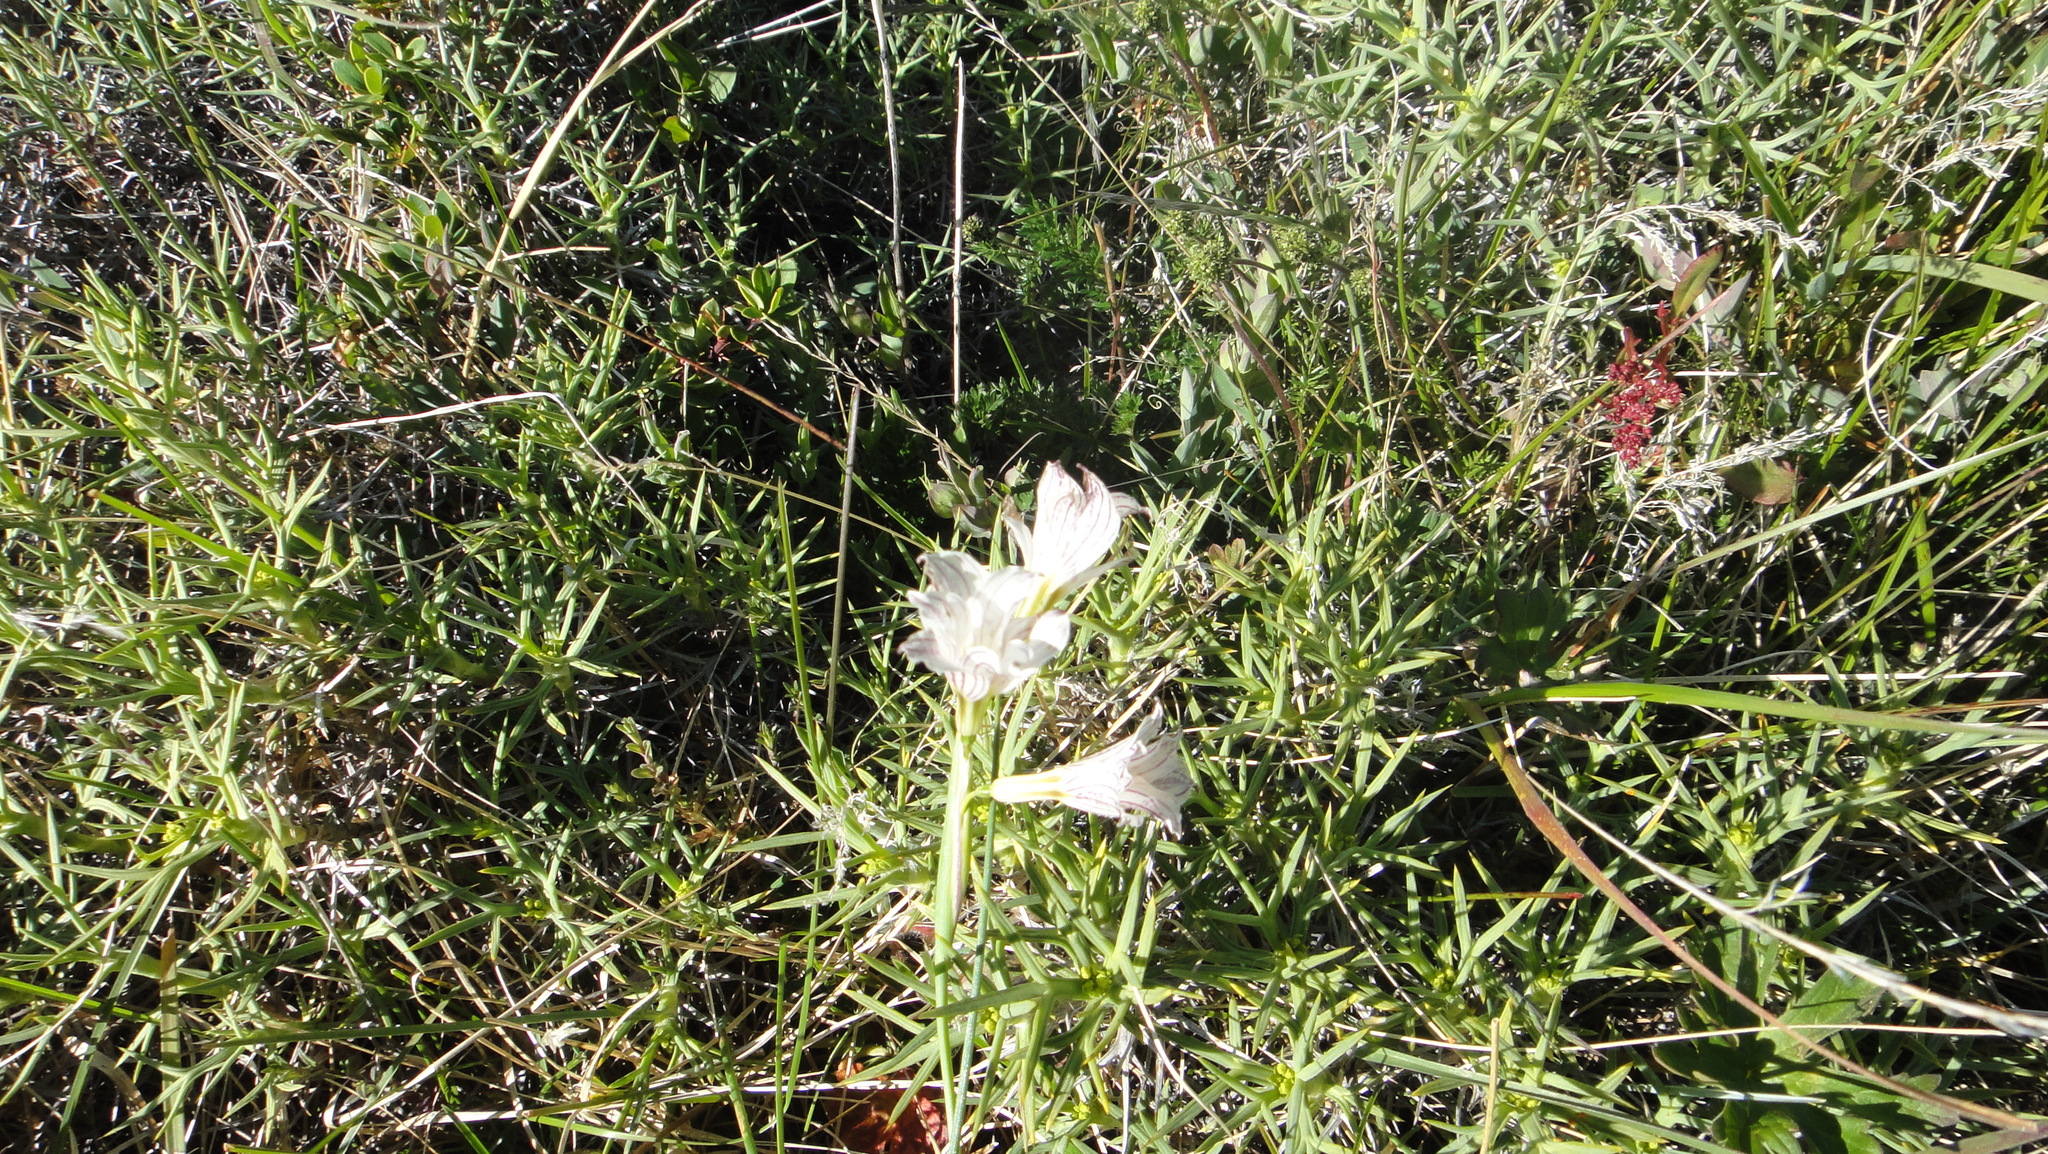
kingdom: Plantae
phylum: Tracheophyta
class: Liliopsida
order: Asparagales
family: Iridaceae
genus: Olsynium
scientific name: Olsynium biflorum
